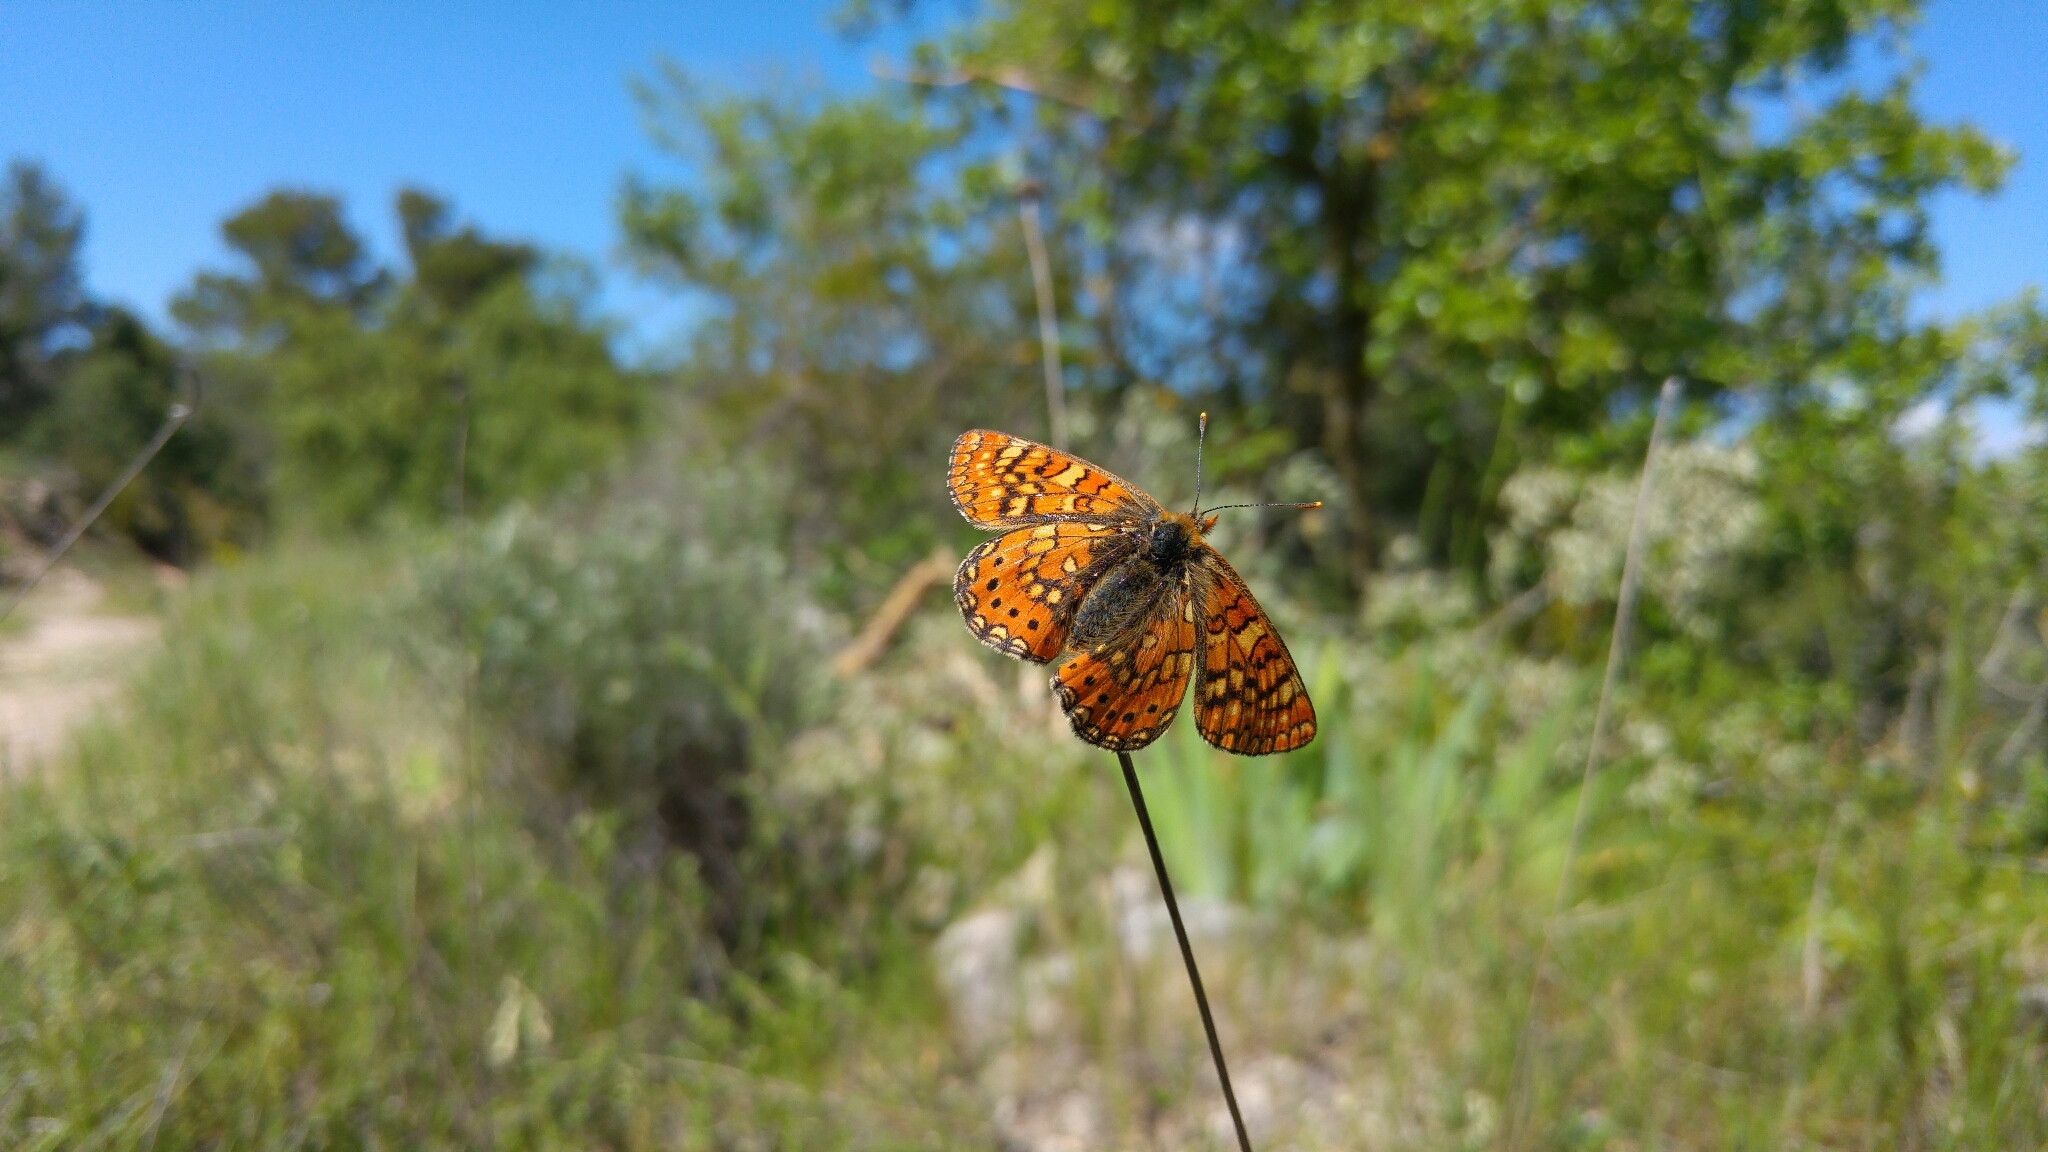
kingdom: Animalia
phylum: Arthropoda
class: Insecta
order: Lepidoptera
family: Nymphalidae
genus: Euphydryas
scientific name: Euphydryas aurinia
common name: Marsh fritillary
